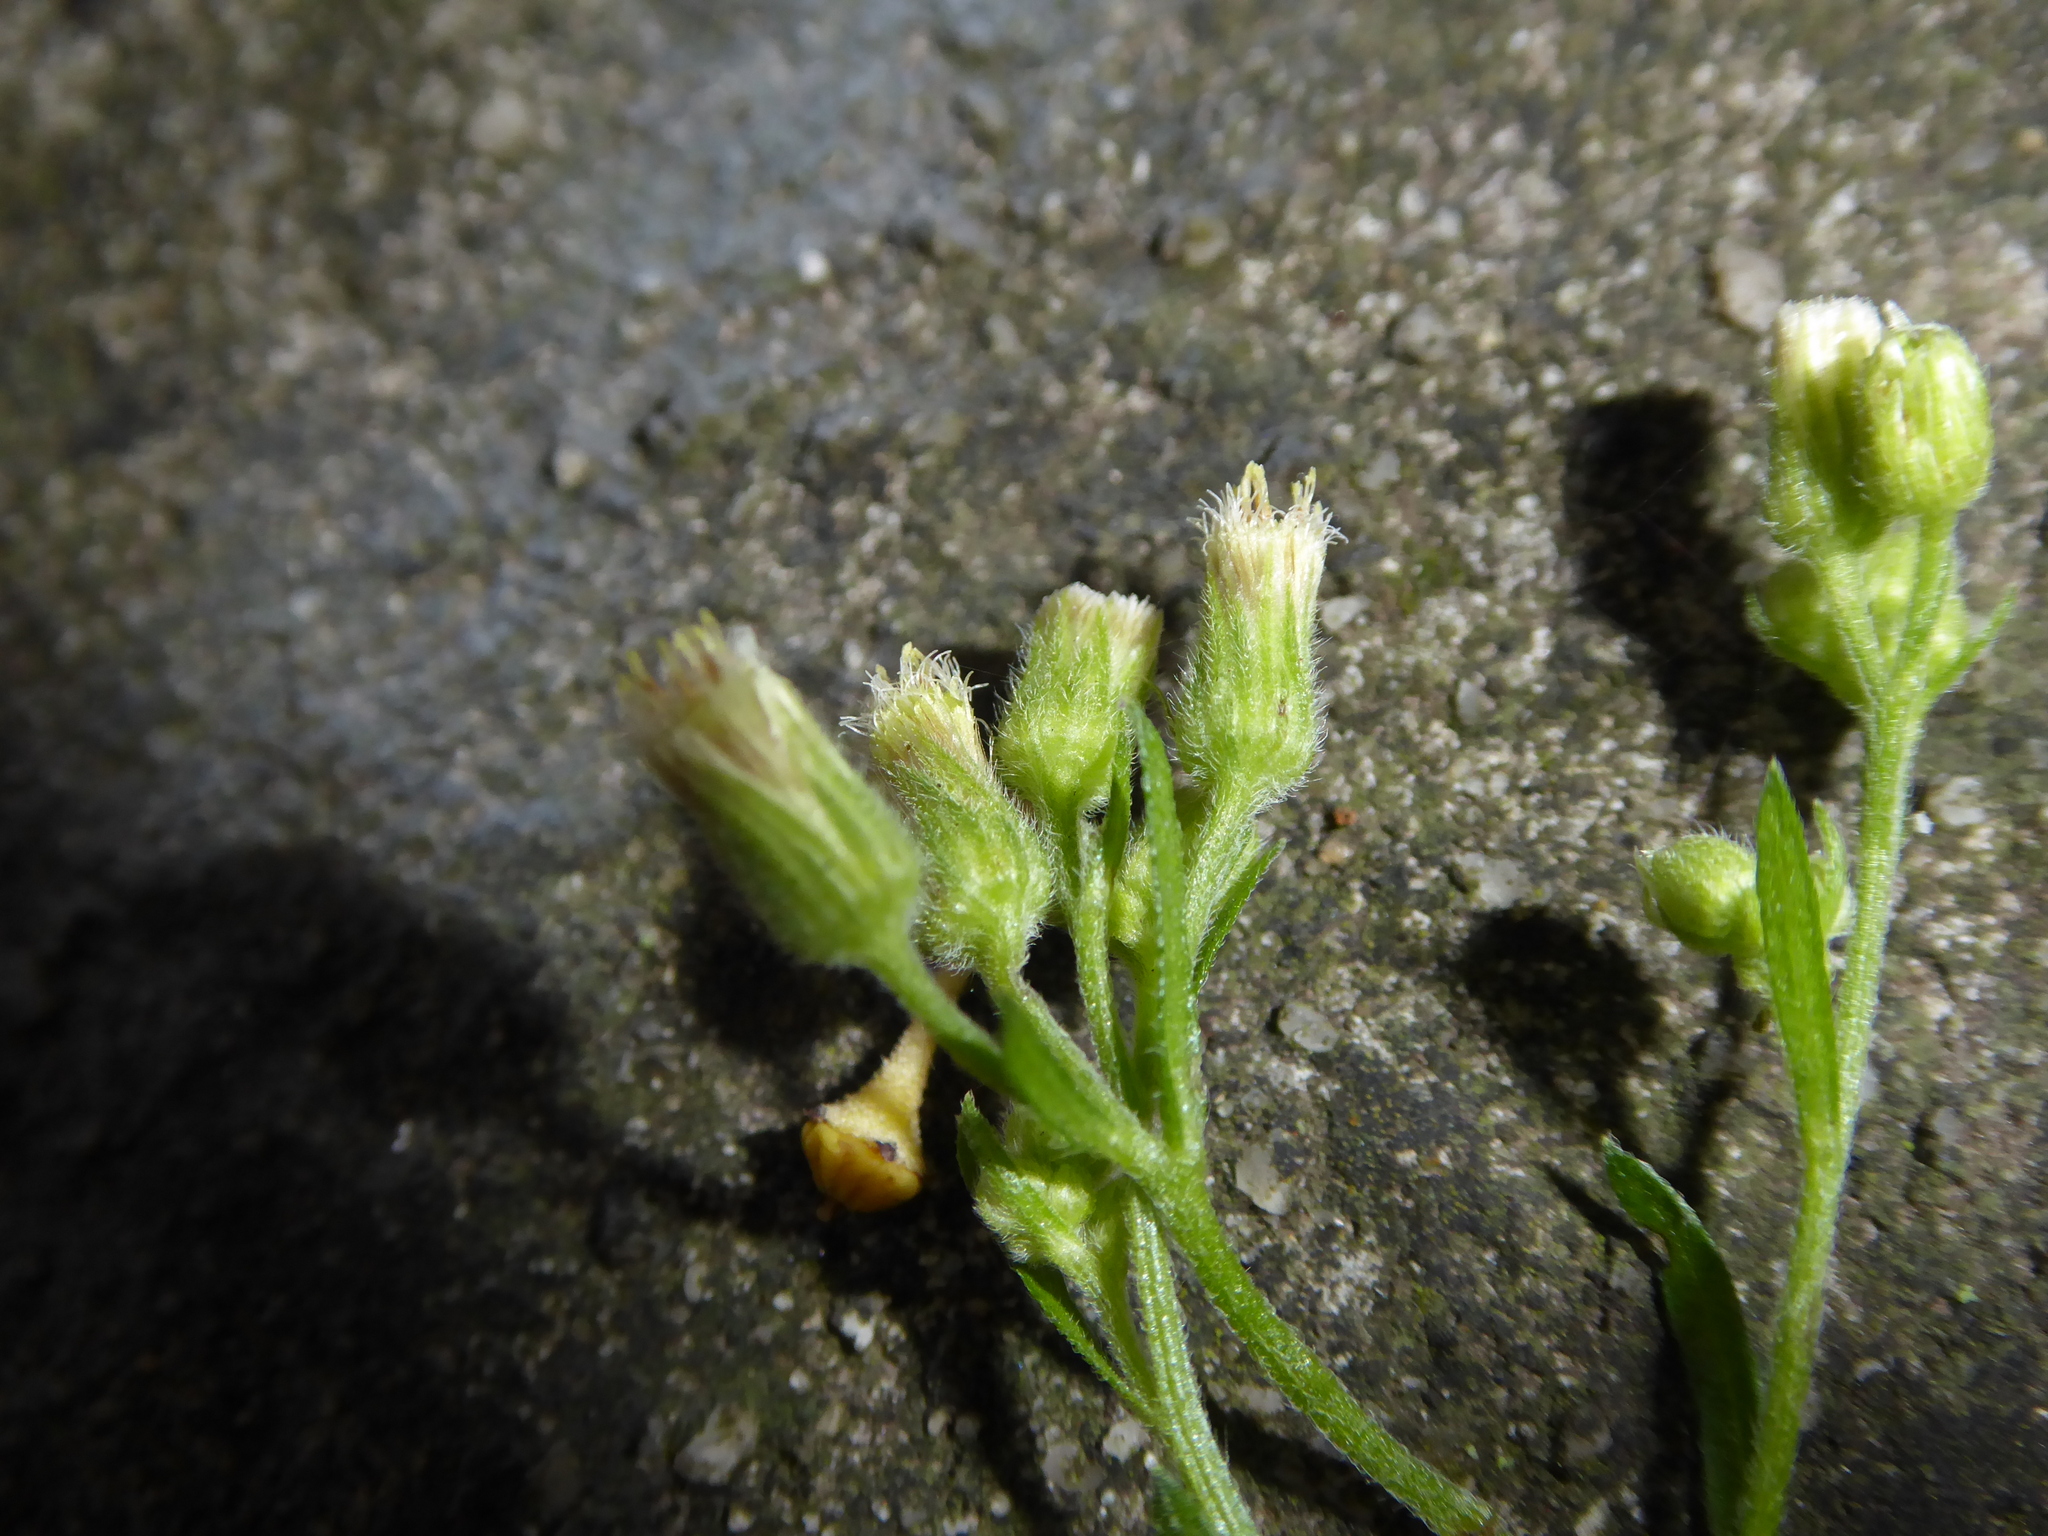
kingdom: Plantae
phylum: Tracheophyta
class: Magnoliopsida
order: Asterales
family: Asteraceae
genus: Erigeron
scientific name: Erigeron sumatrensis
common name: Daisy
